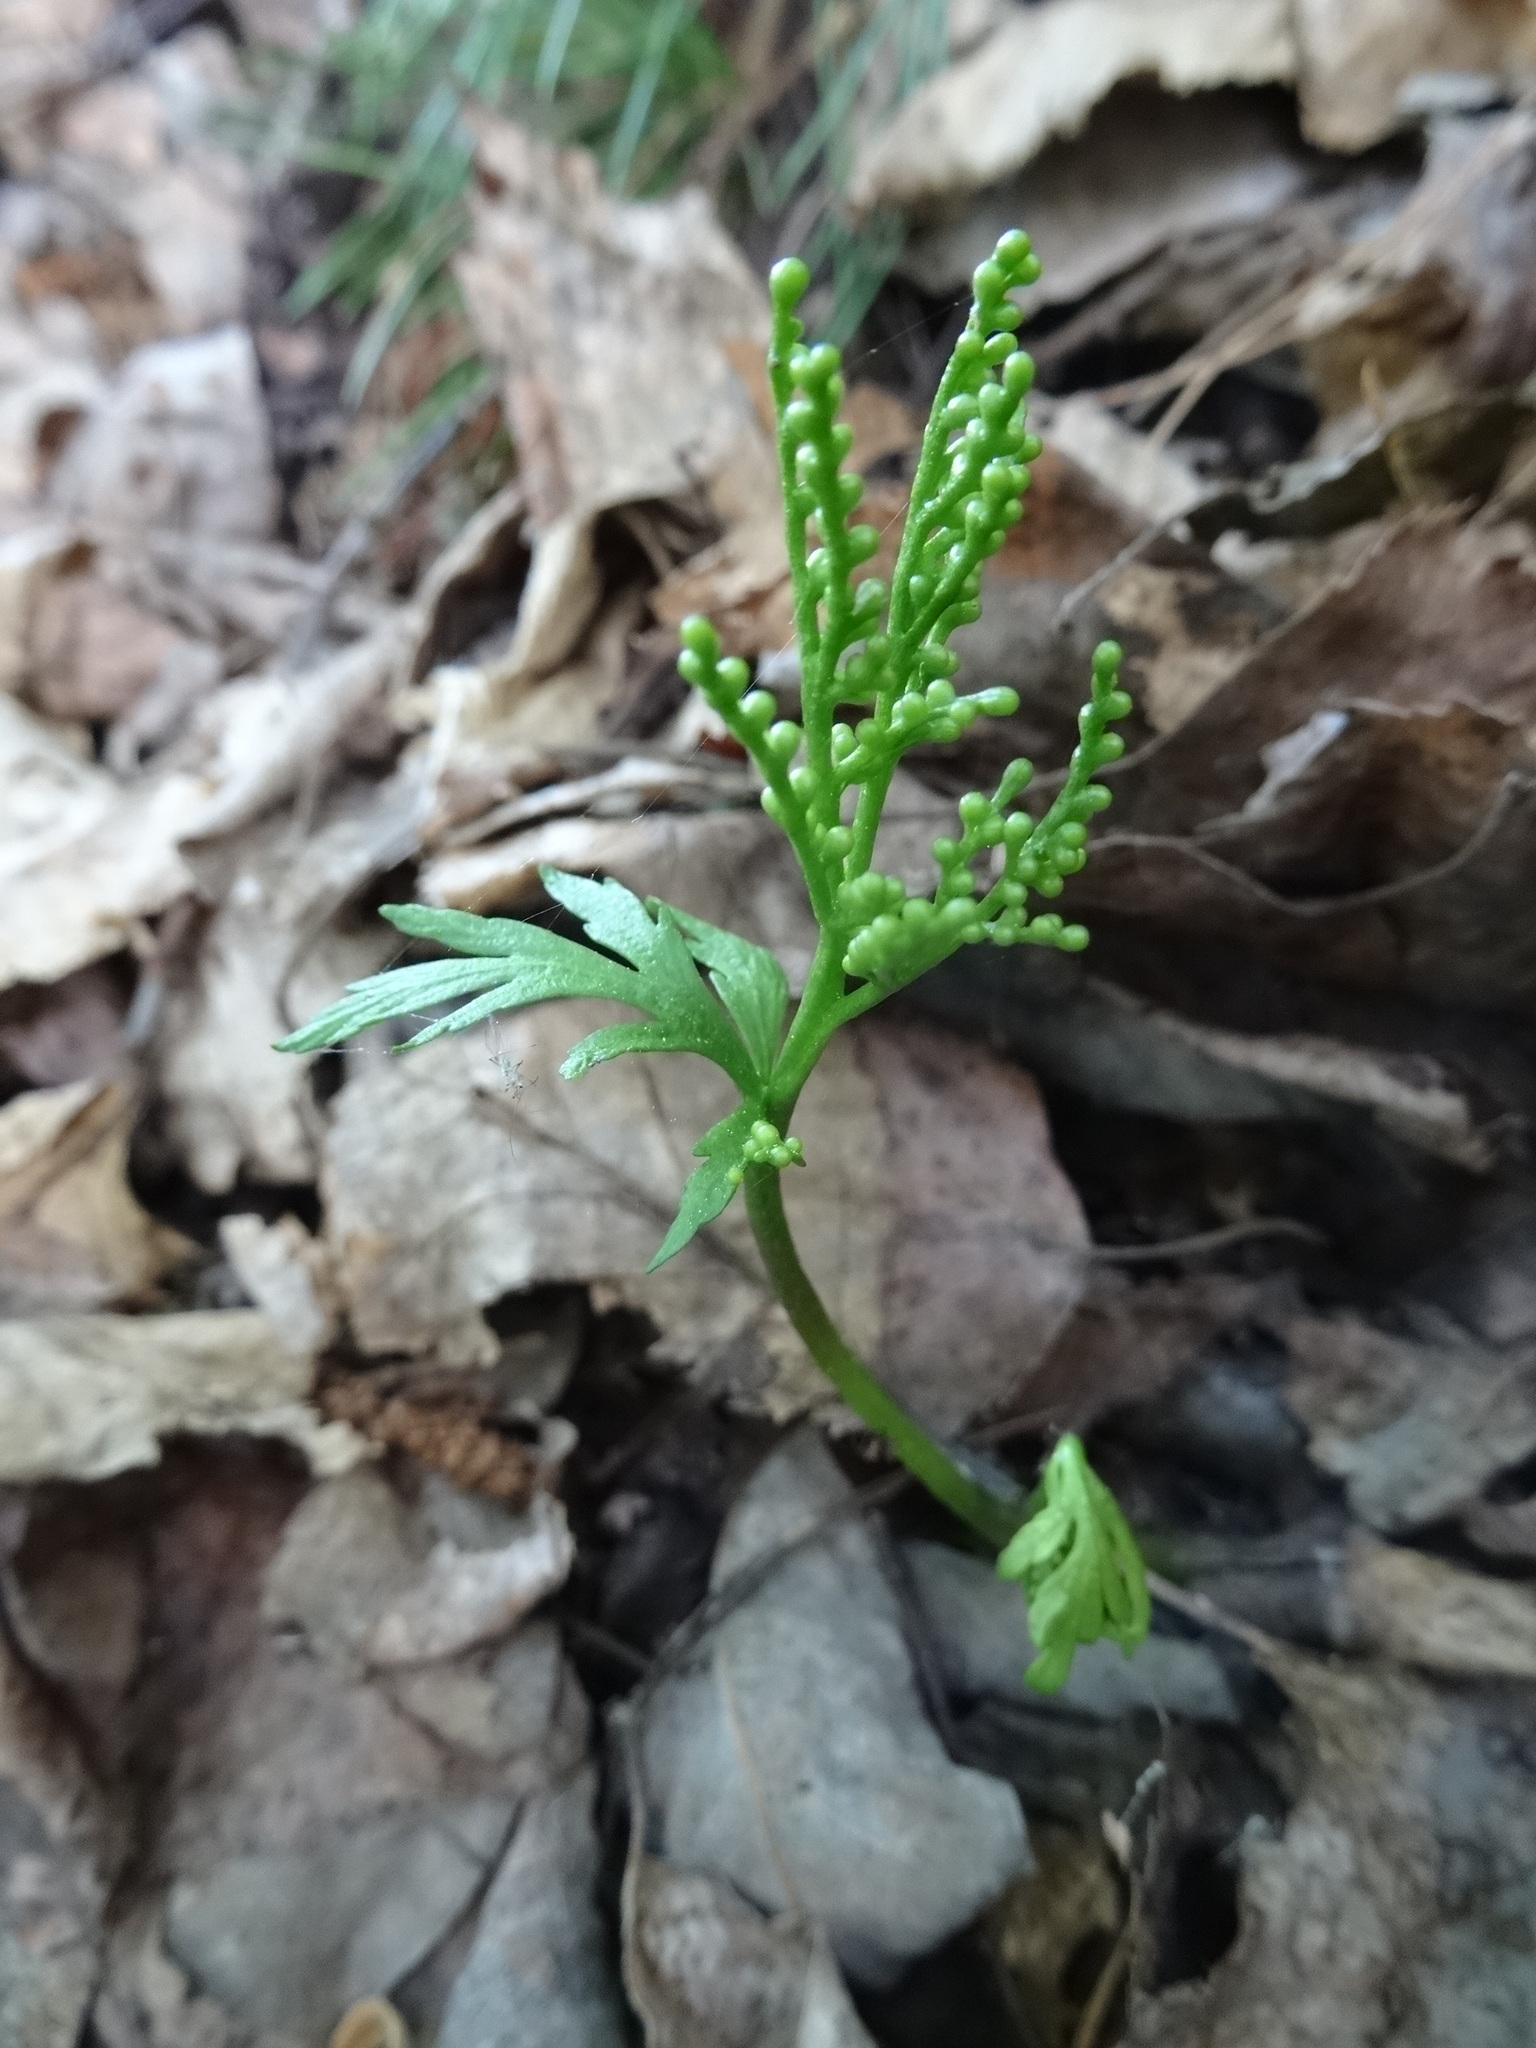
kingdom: Plantae
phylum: Tracheophyta
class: Polypodiopsida
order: Ophioglossales
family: Ophioglossaceae
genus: Botrychium
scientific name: Botrychium lanceolatum
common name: Lance-leaved moonwort
